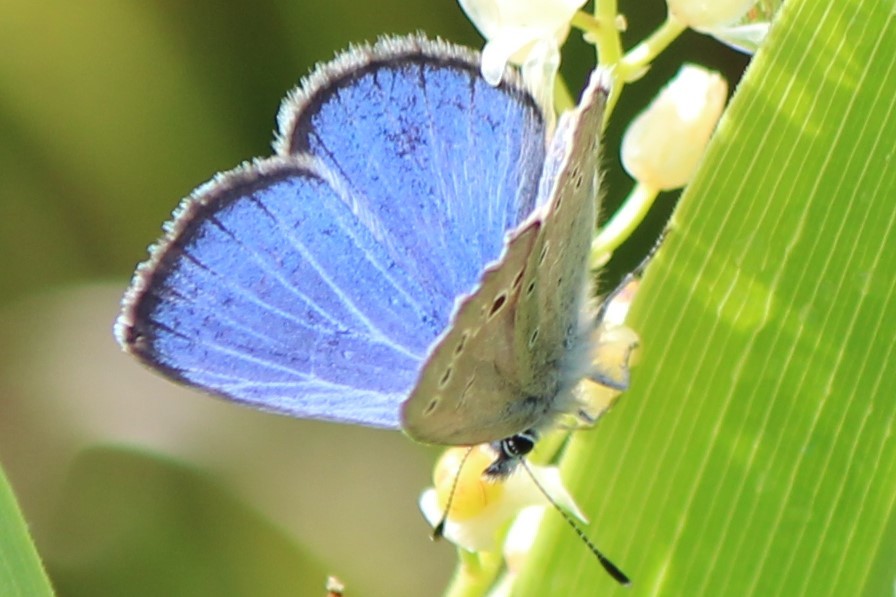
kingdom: Animalia
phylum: Arthropoda
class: Insecta
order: Lepidoptera
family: Lycaenidae
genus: Glaucopsyche
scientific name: Glaucopsyche lygdamus
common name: Silvery blue
